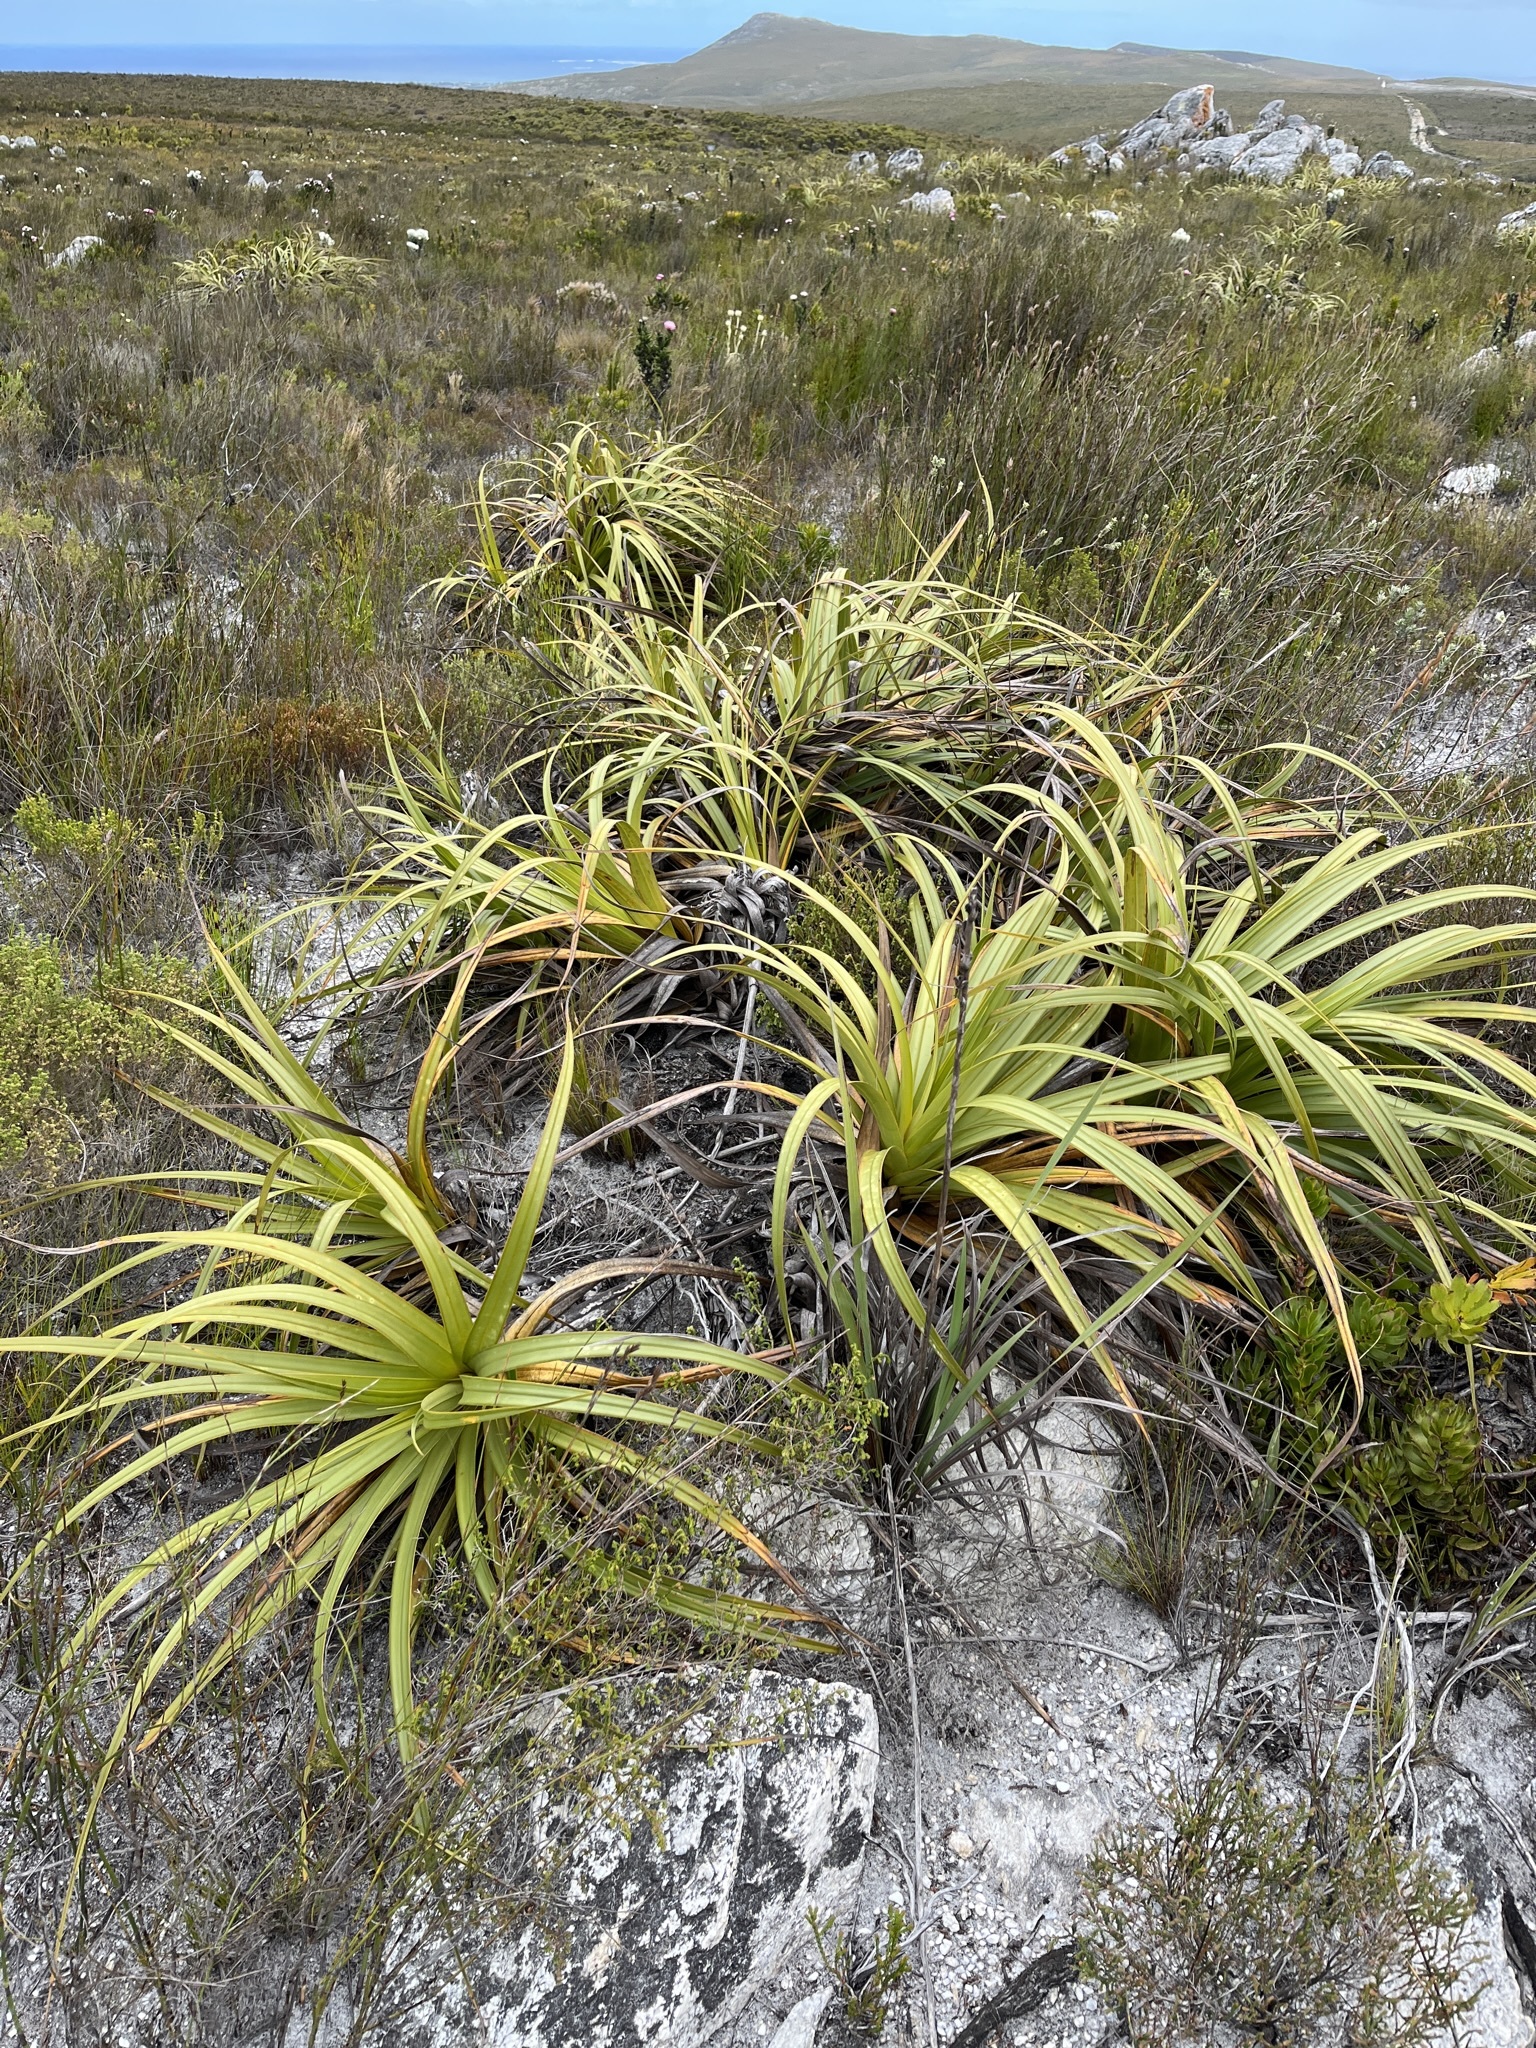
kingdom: Plantae
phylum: Tracheophyta
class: Liliopsida
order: Poales
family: Cyperaceae
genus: Tetraria
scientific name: Tetraria thermalis
